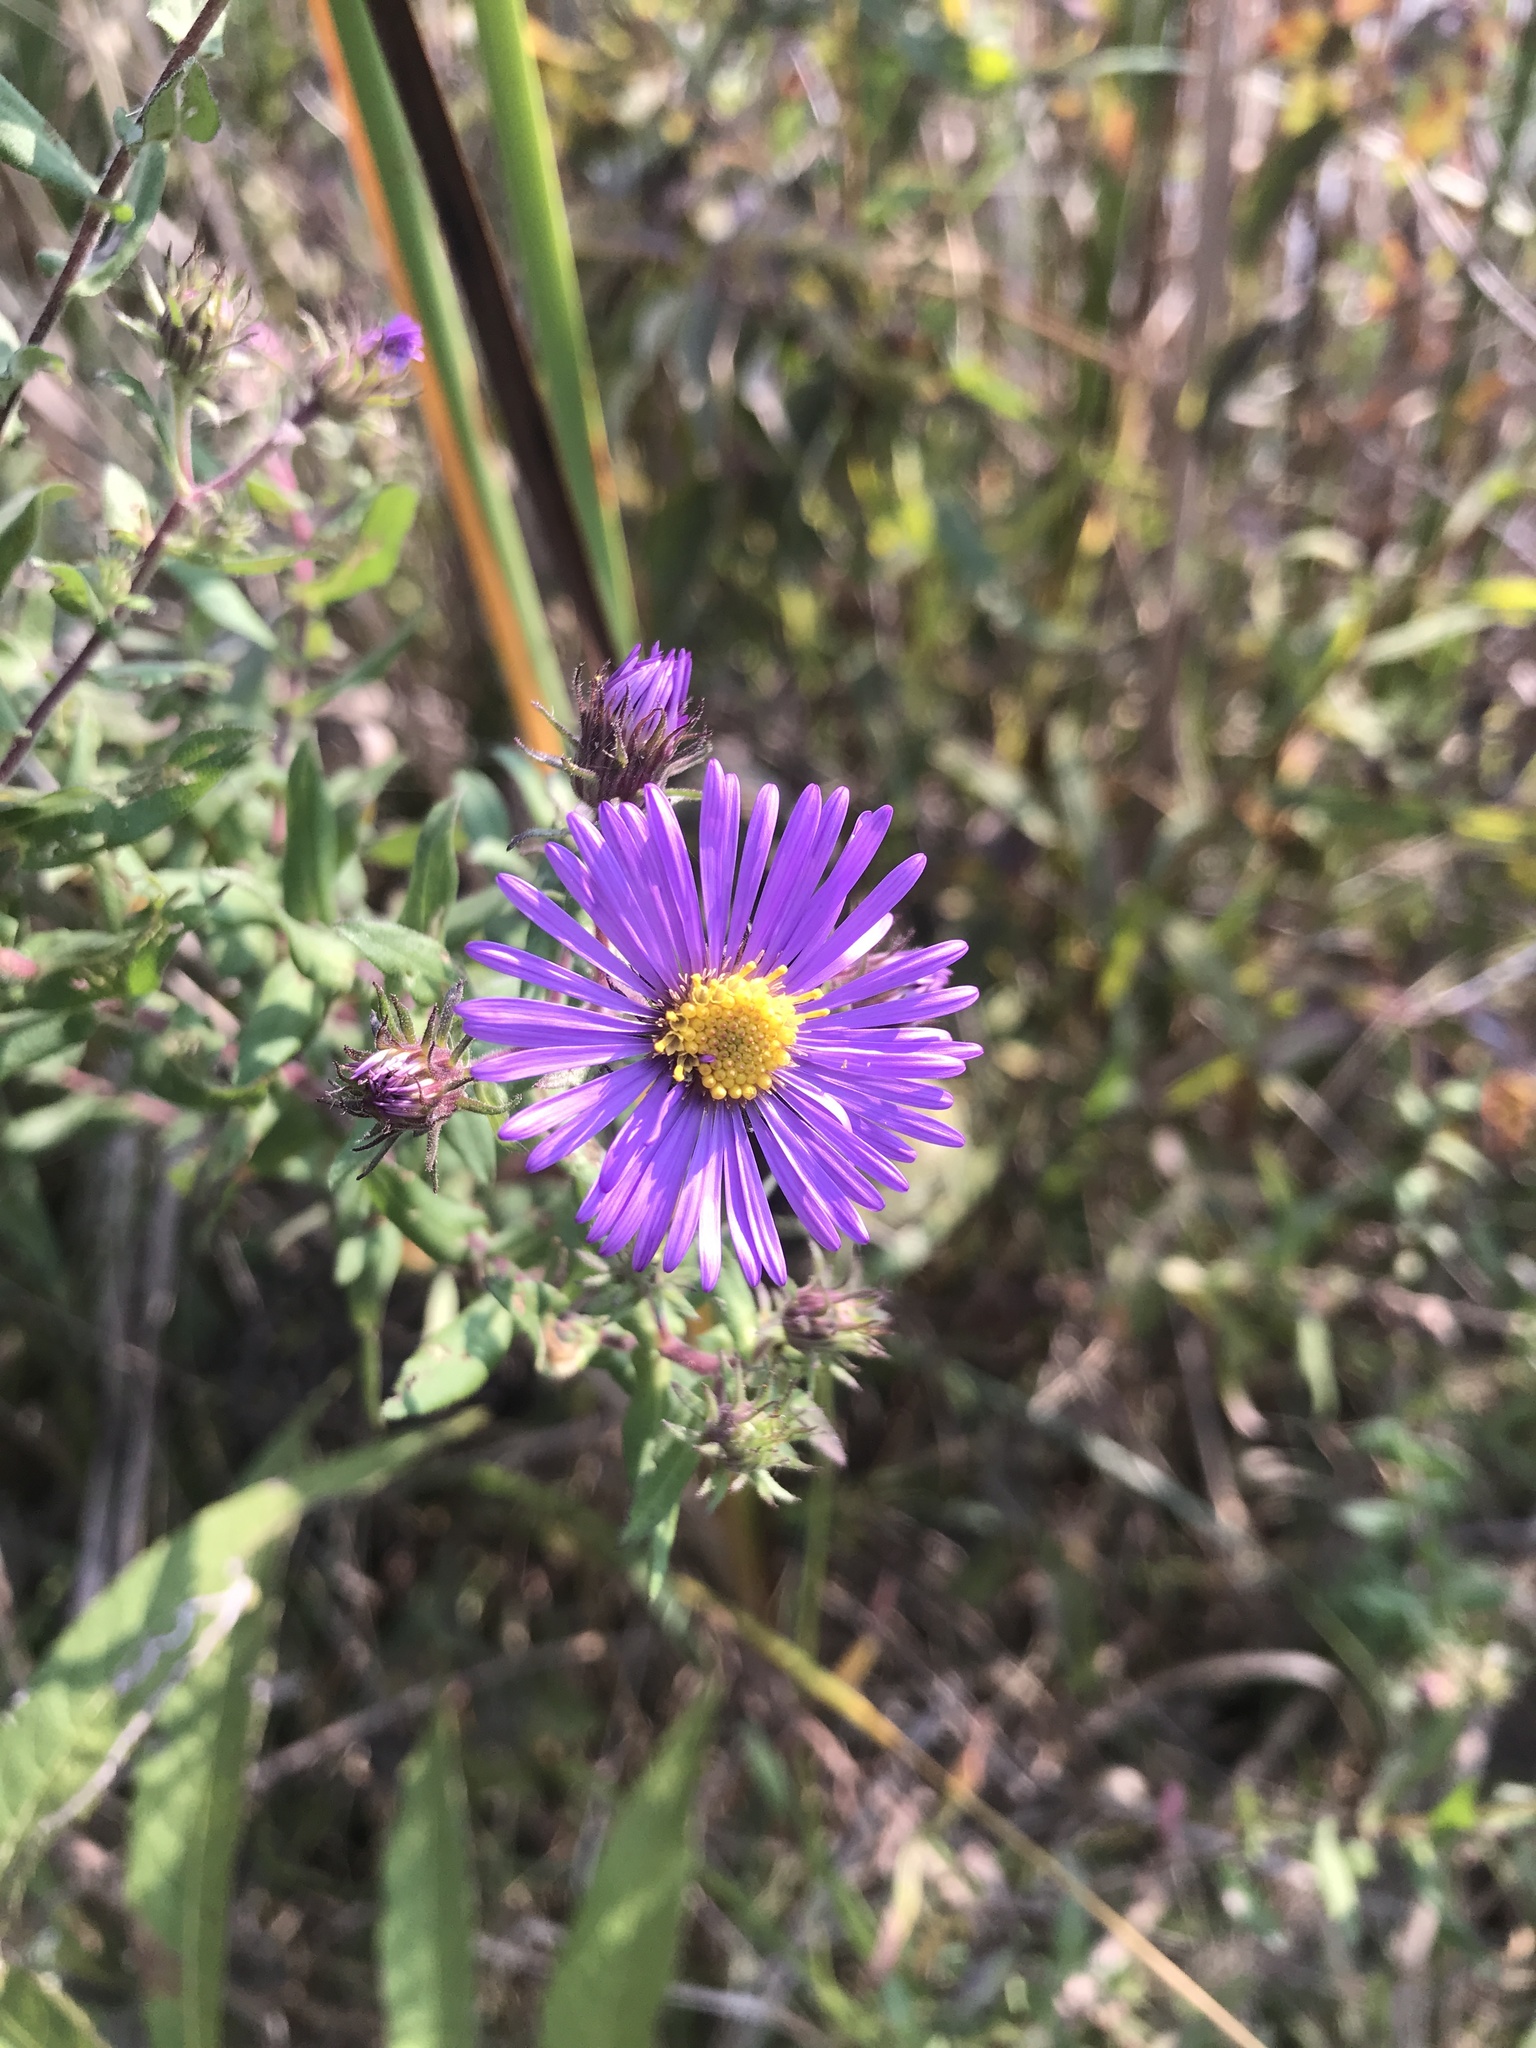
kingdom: Plantae
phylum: Tracheophyta
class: Magnoliopsida
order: Asterales
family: Asteraceae
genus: Symphyotrichum
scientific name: Symphyotrichum novae-angliae
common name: Michaelmas daisy
